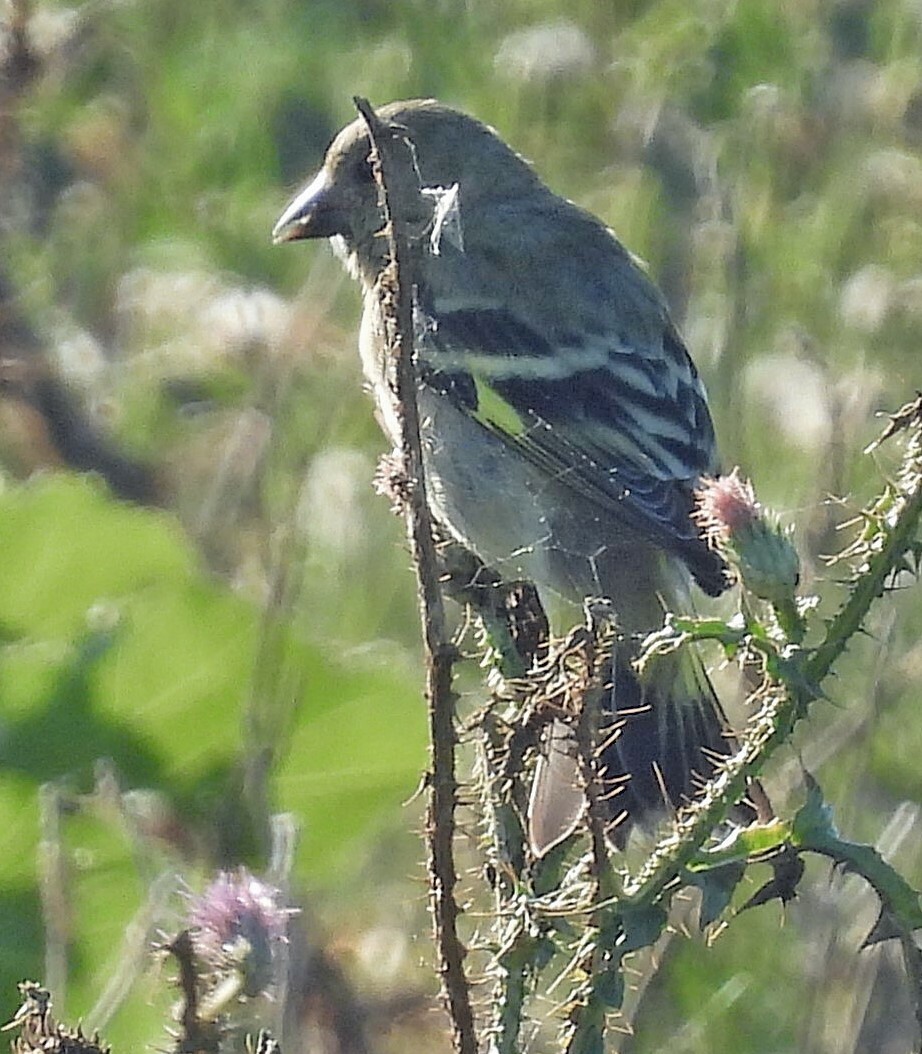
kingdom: Animalia
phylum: Chordata
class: Aves
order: Passeriformes
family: Fringillidae
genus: Spinus
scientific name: Spinus magellanicus
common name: Hooded siskin
